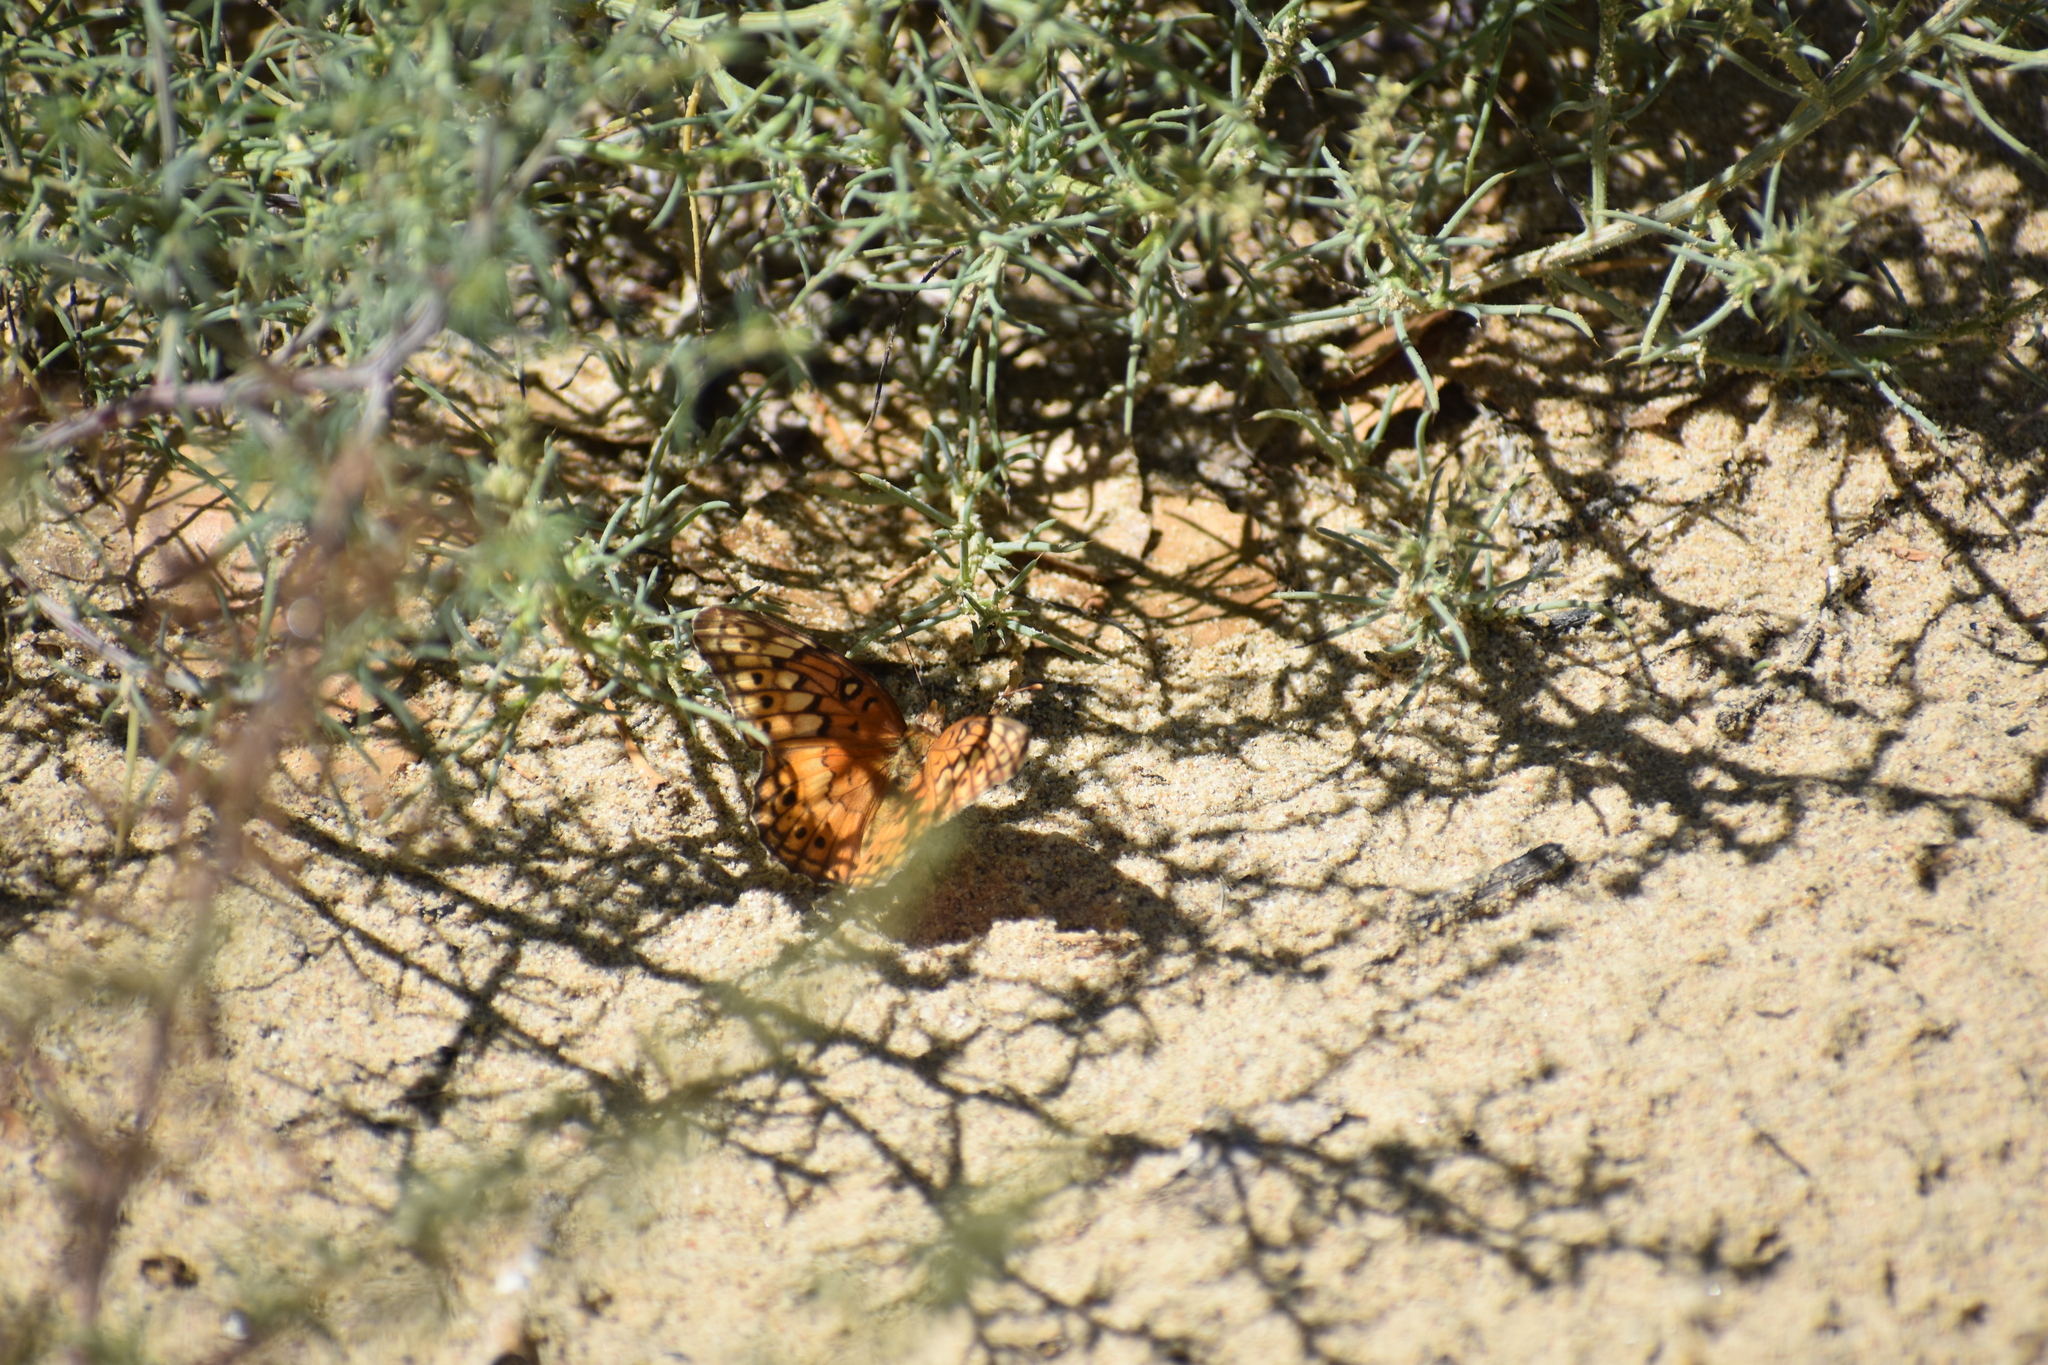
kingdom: Animalia
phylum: Arthropoda
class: Insecta
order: Lepidoptera
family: Nymphalidae
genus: Euptoieta
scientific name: Euptoieta claudia
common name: Variegated fritillary
